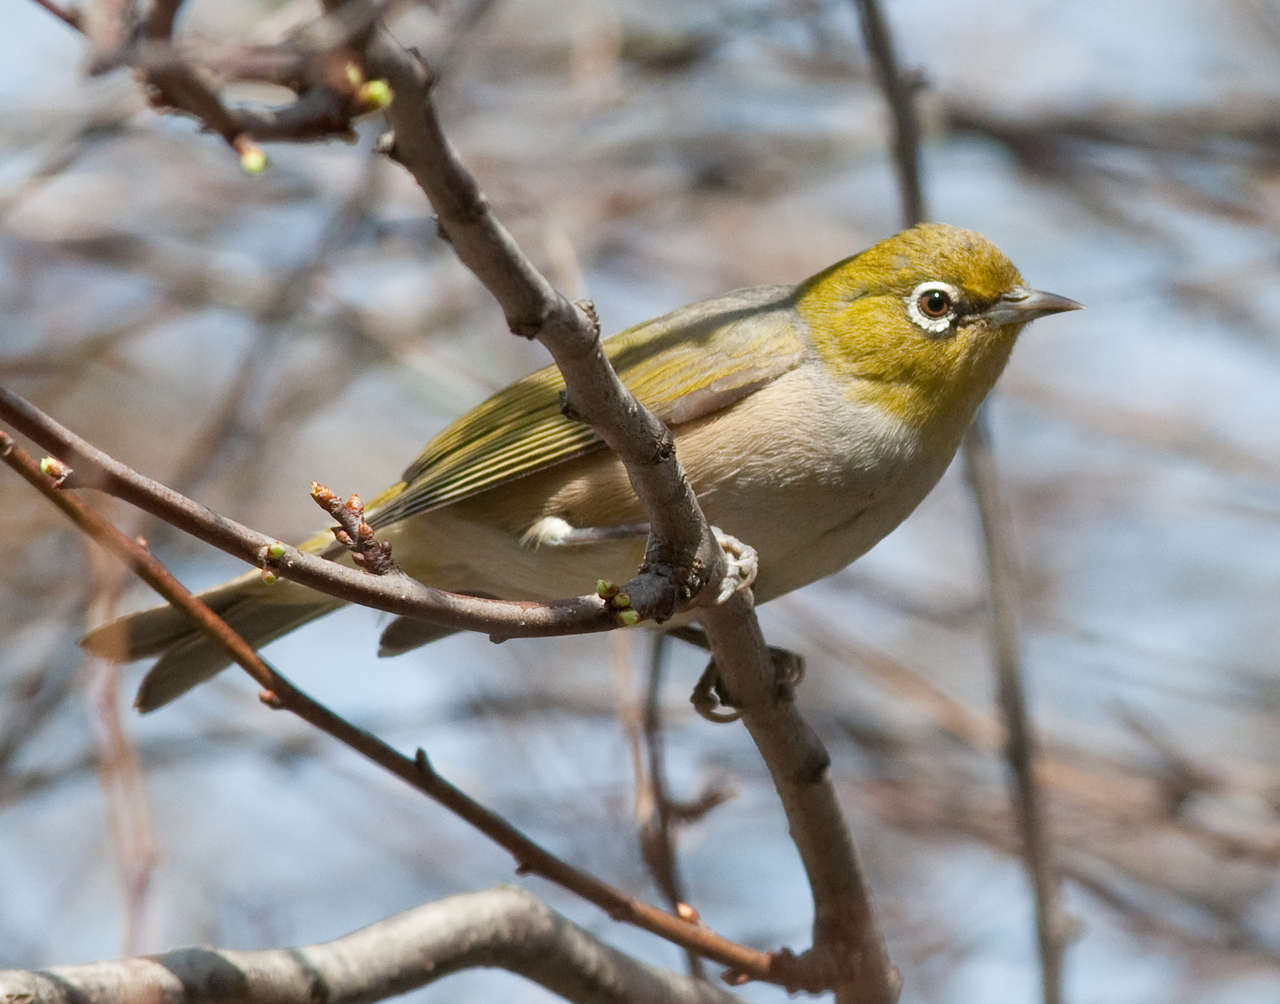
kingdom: Animalia
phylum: Chordata
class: Aves
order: Passeriformes
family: Zosteropidae
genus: Zosterops
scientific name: Zosterops lateralis
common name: Silvereye
